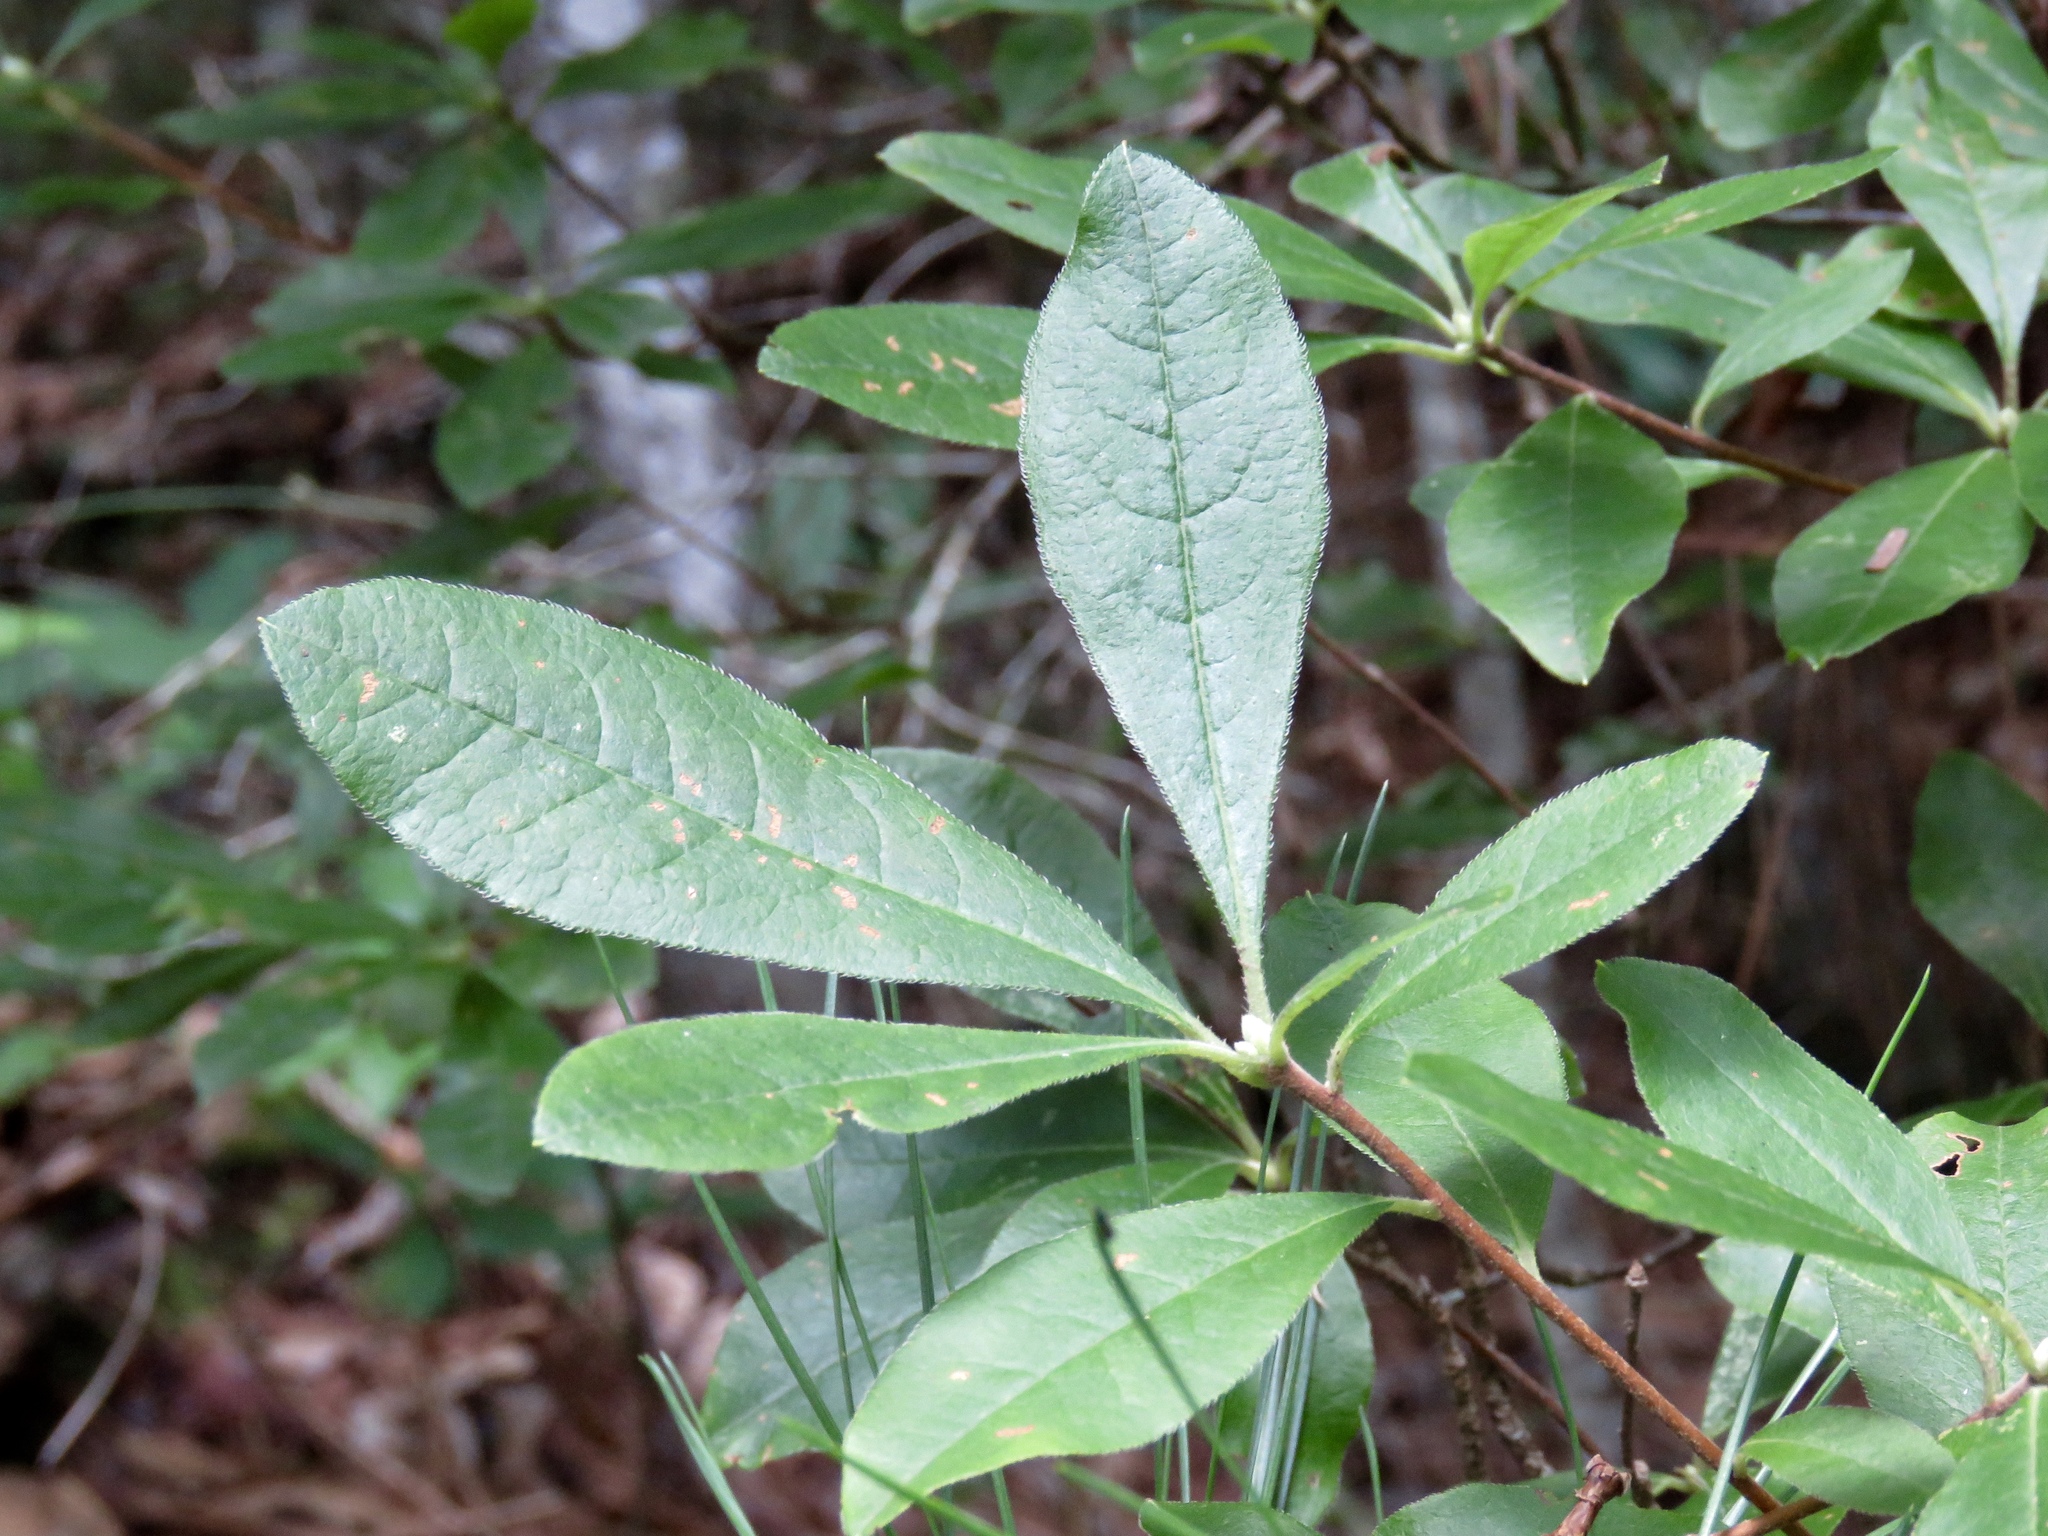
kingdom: Plantae
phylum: Tracheophyta
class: Magnoliopsida
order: Ericales
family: Ericaceae
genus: Rhododendron
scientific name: Rhododendron canescens
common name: Mountain azalea
